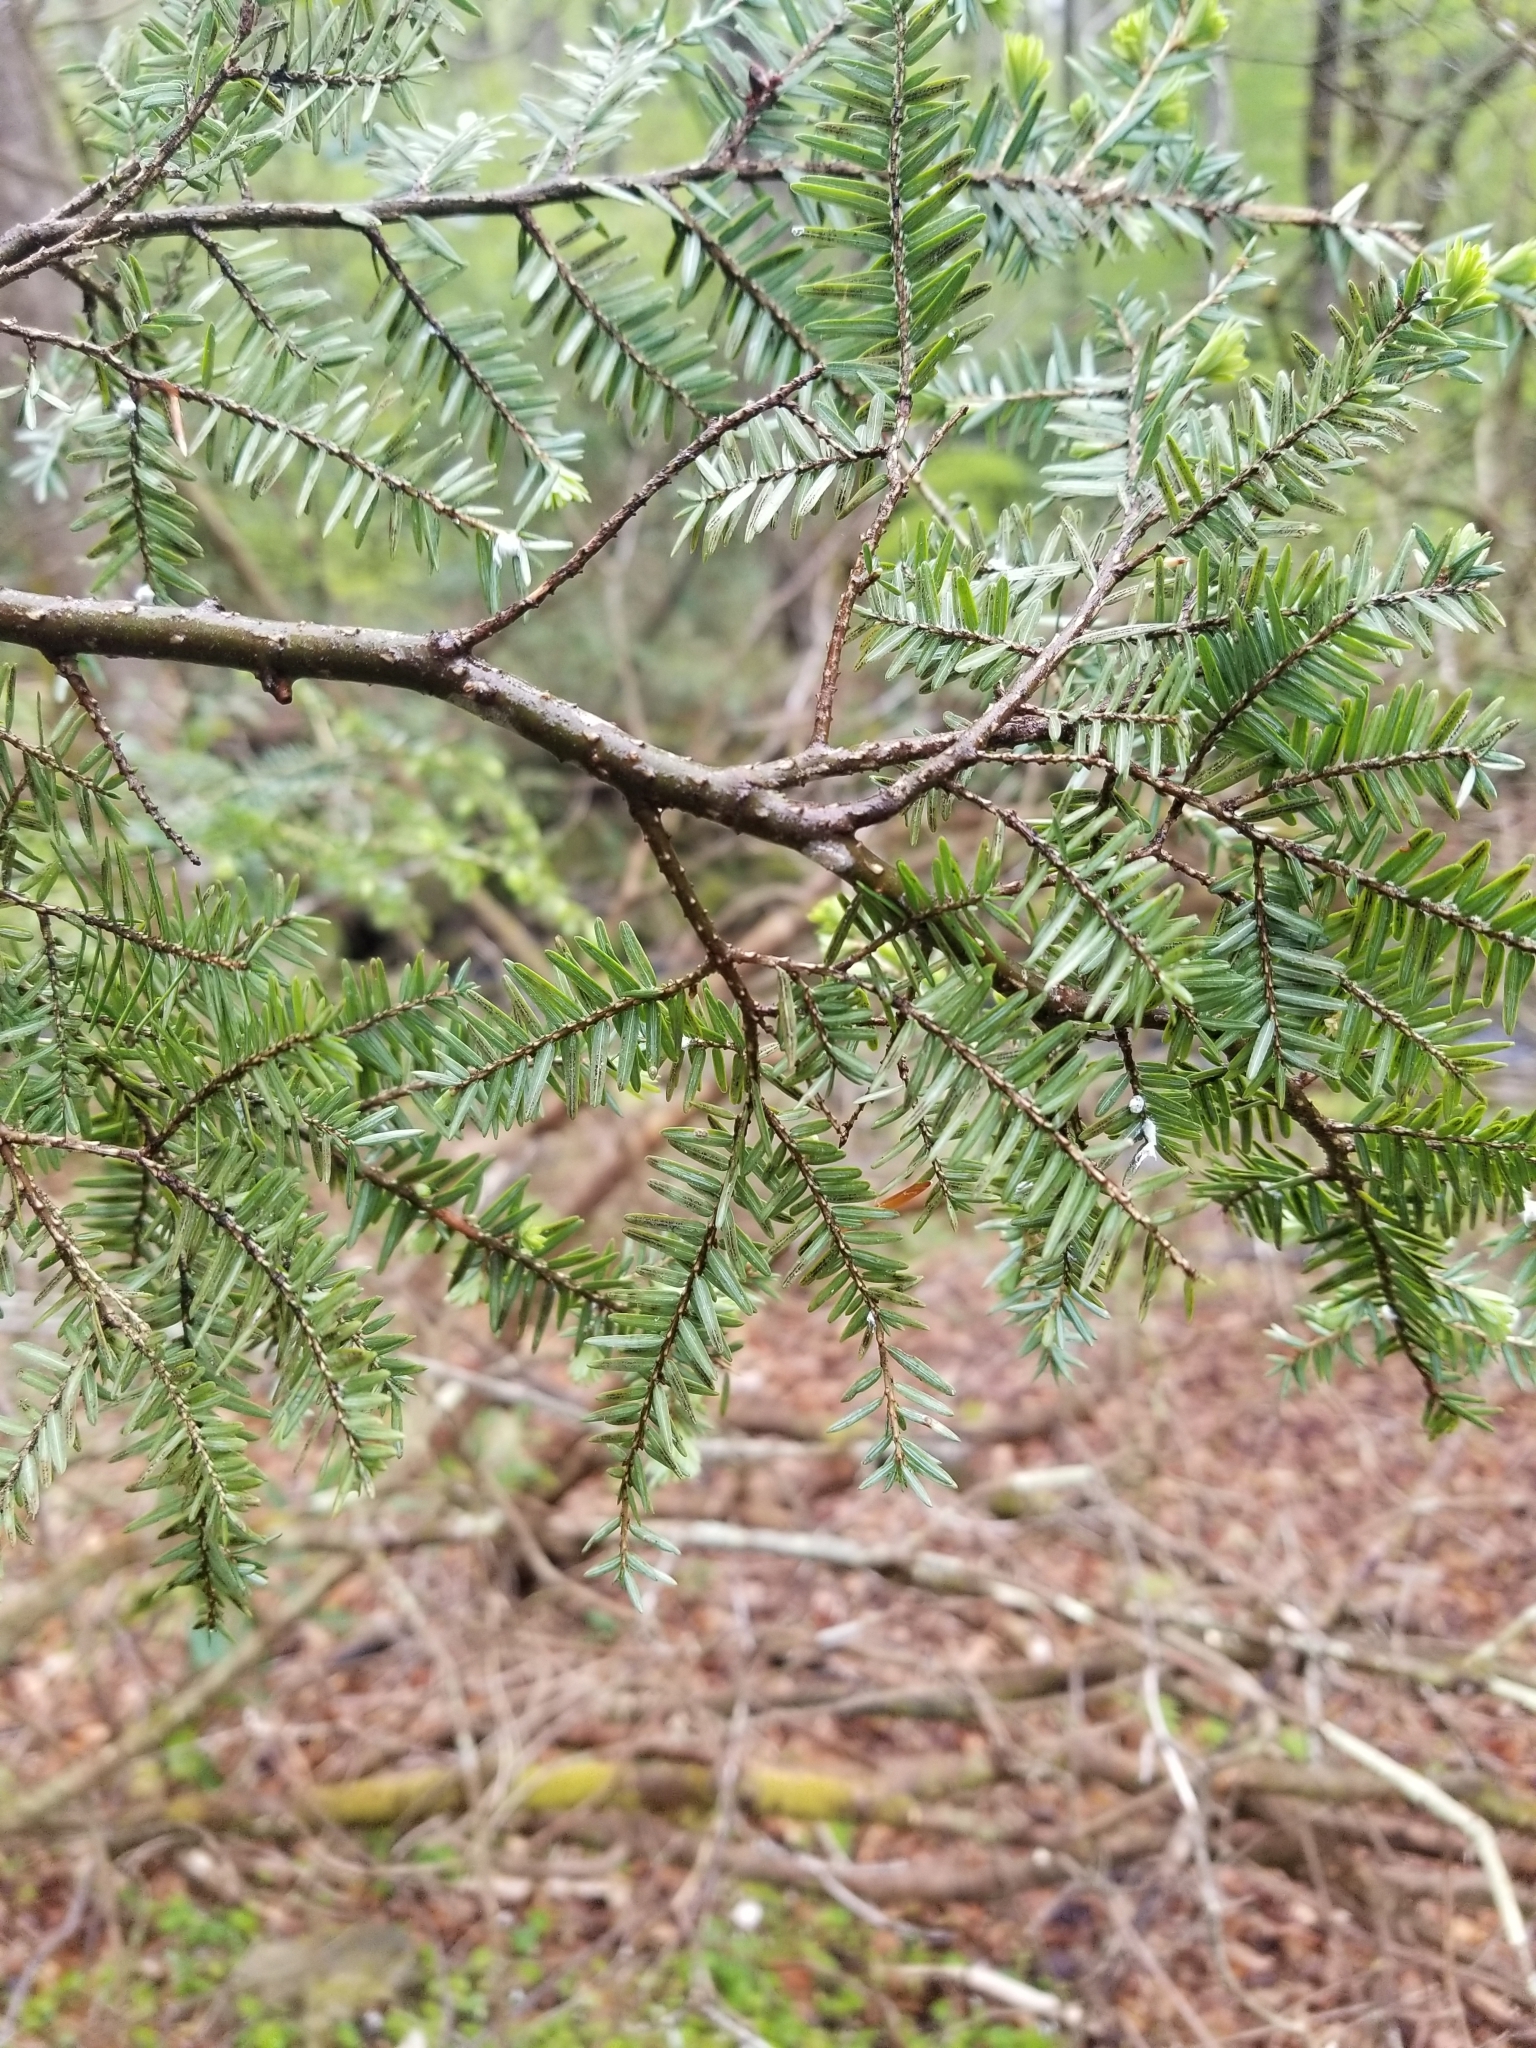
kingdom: Plantae
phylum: Tracheophyta
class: Pinopsida
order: Pinales
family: Pinaceae
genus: Tsuga
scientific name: Tsuga canadensis
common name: Eastern hemlock
